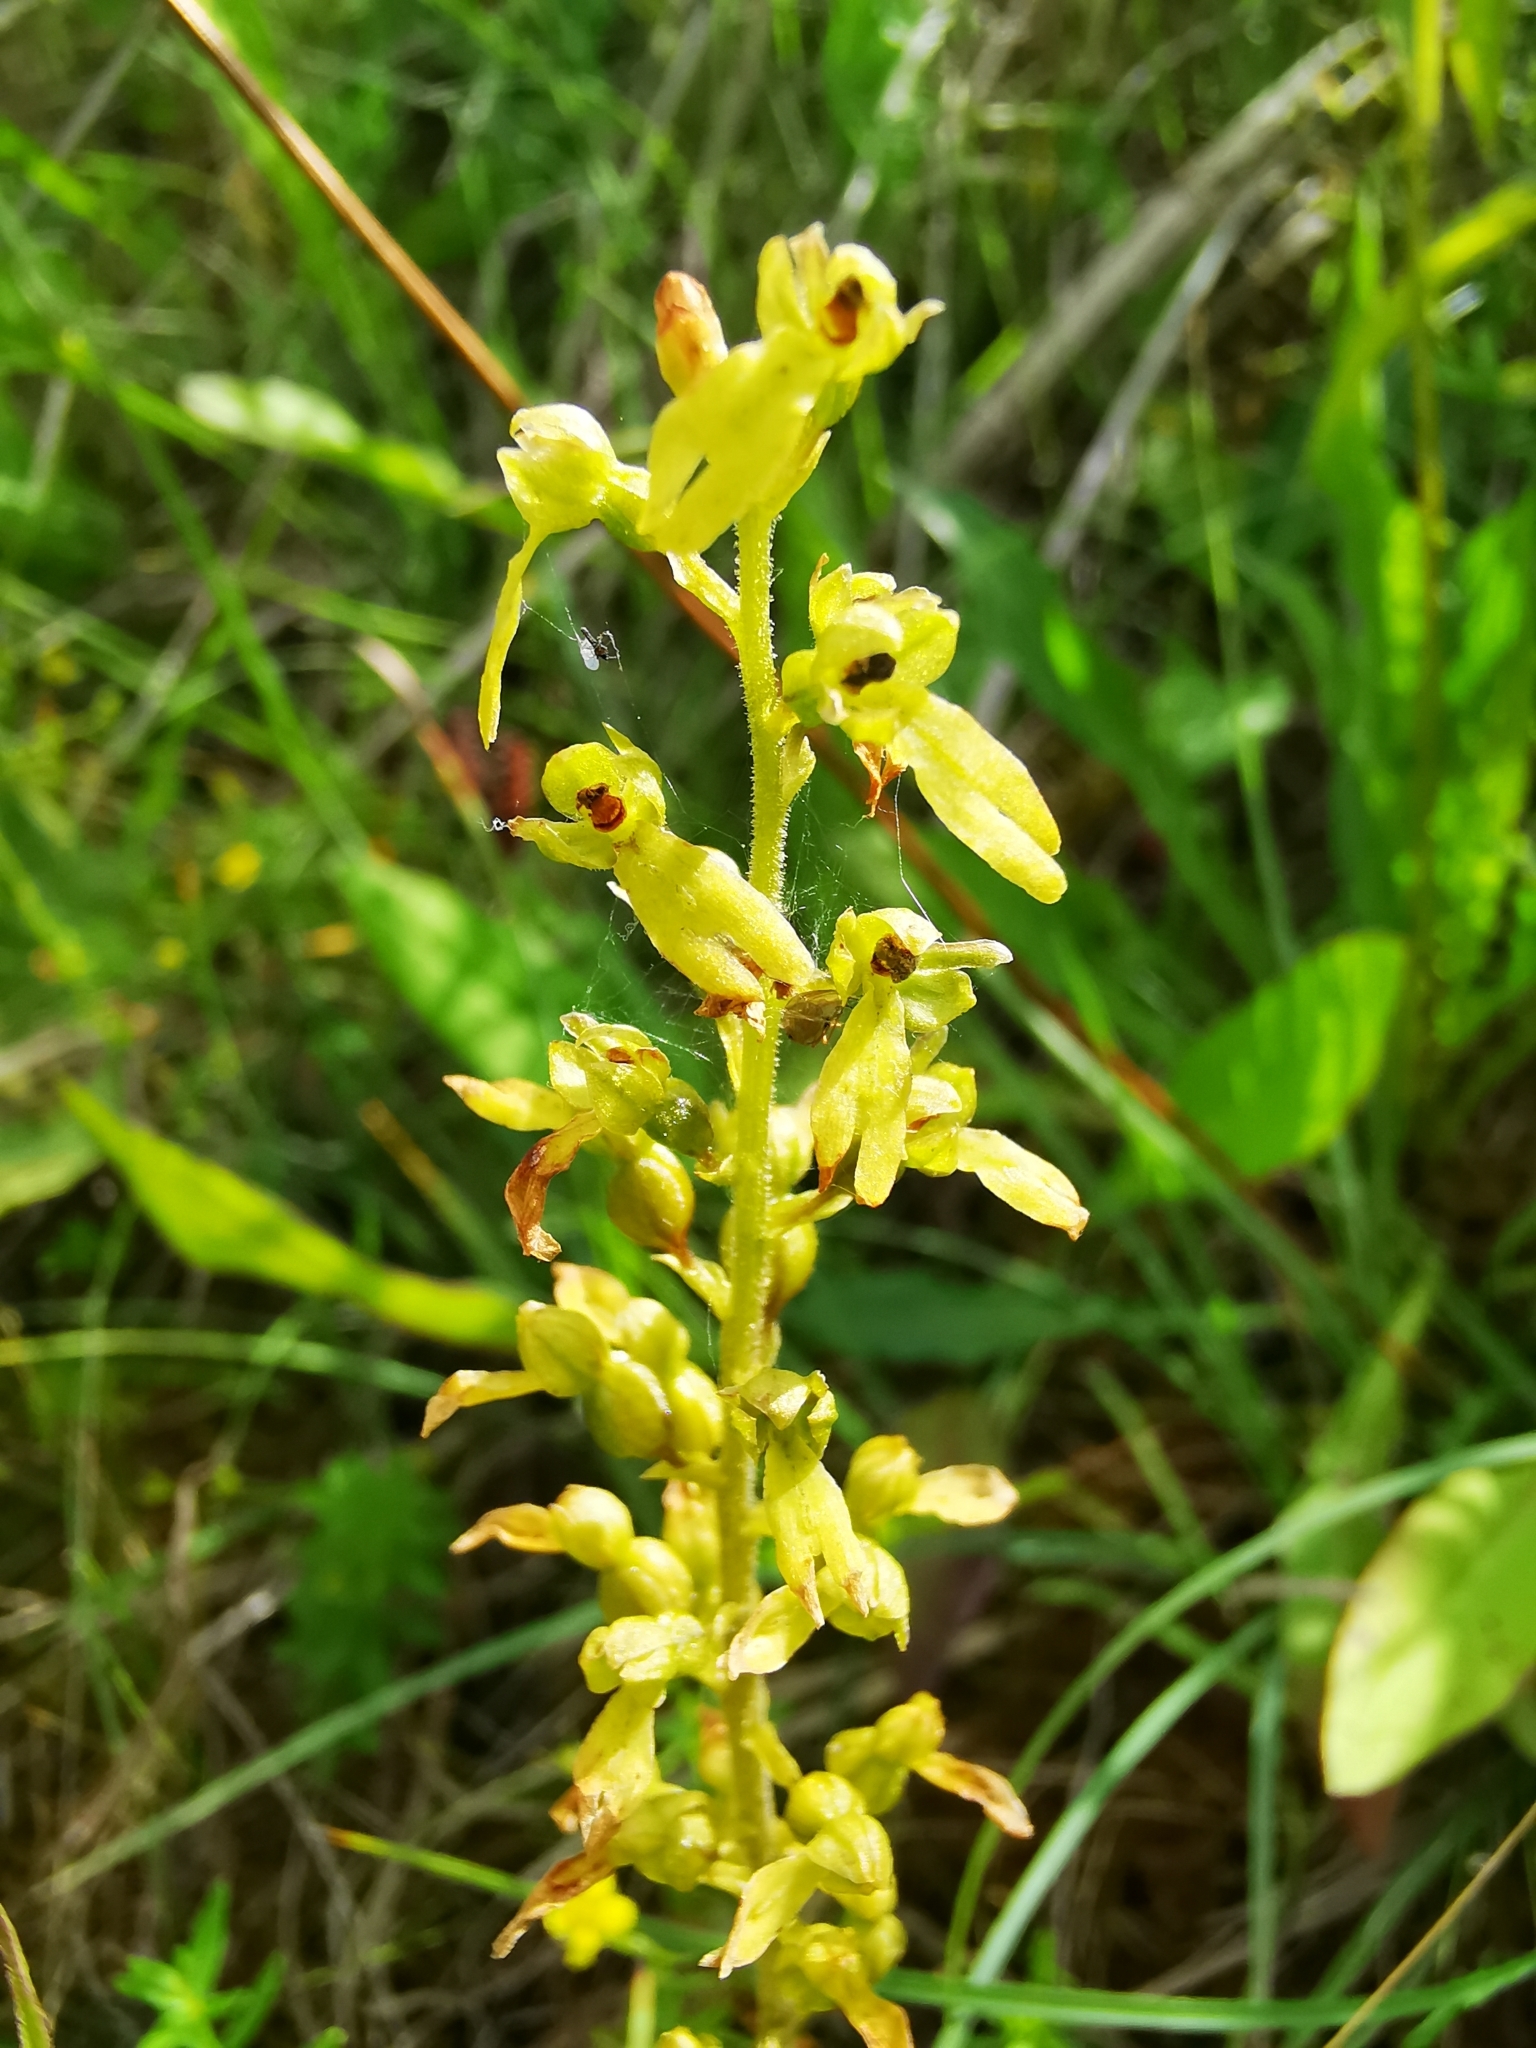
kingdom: Plantae
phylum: Tracheophyta
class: Liliopsida
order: Asparagales
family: Orchidaceae
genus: Neottia
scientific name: Neottia ovata
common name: Common twayblade
